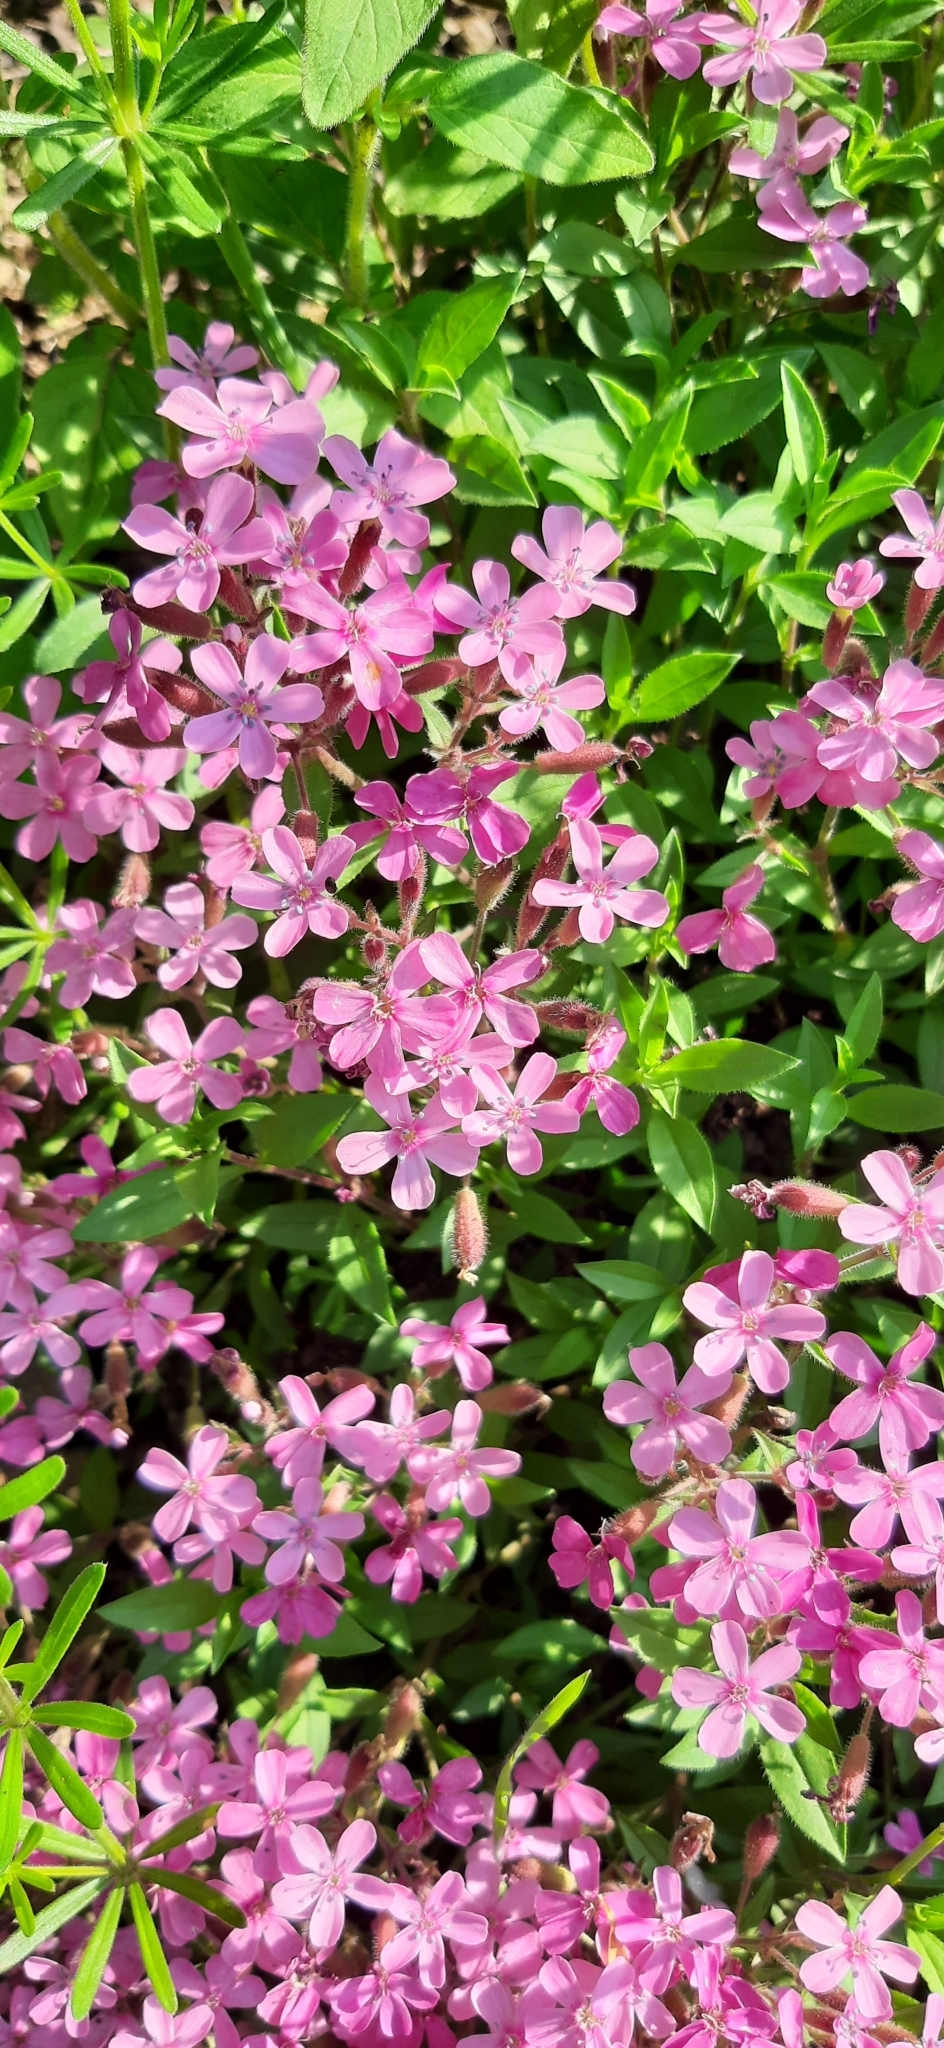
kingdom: Plantae
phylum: Tracheophyta
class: Magnoliopsida
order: Caryophyllales
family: Caryophyllaceae
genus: Saponaria
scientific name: Saponaria ocymoides
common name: Rock soapwort
